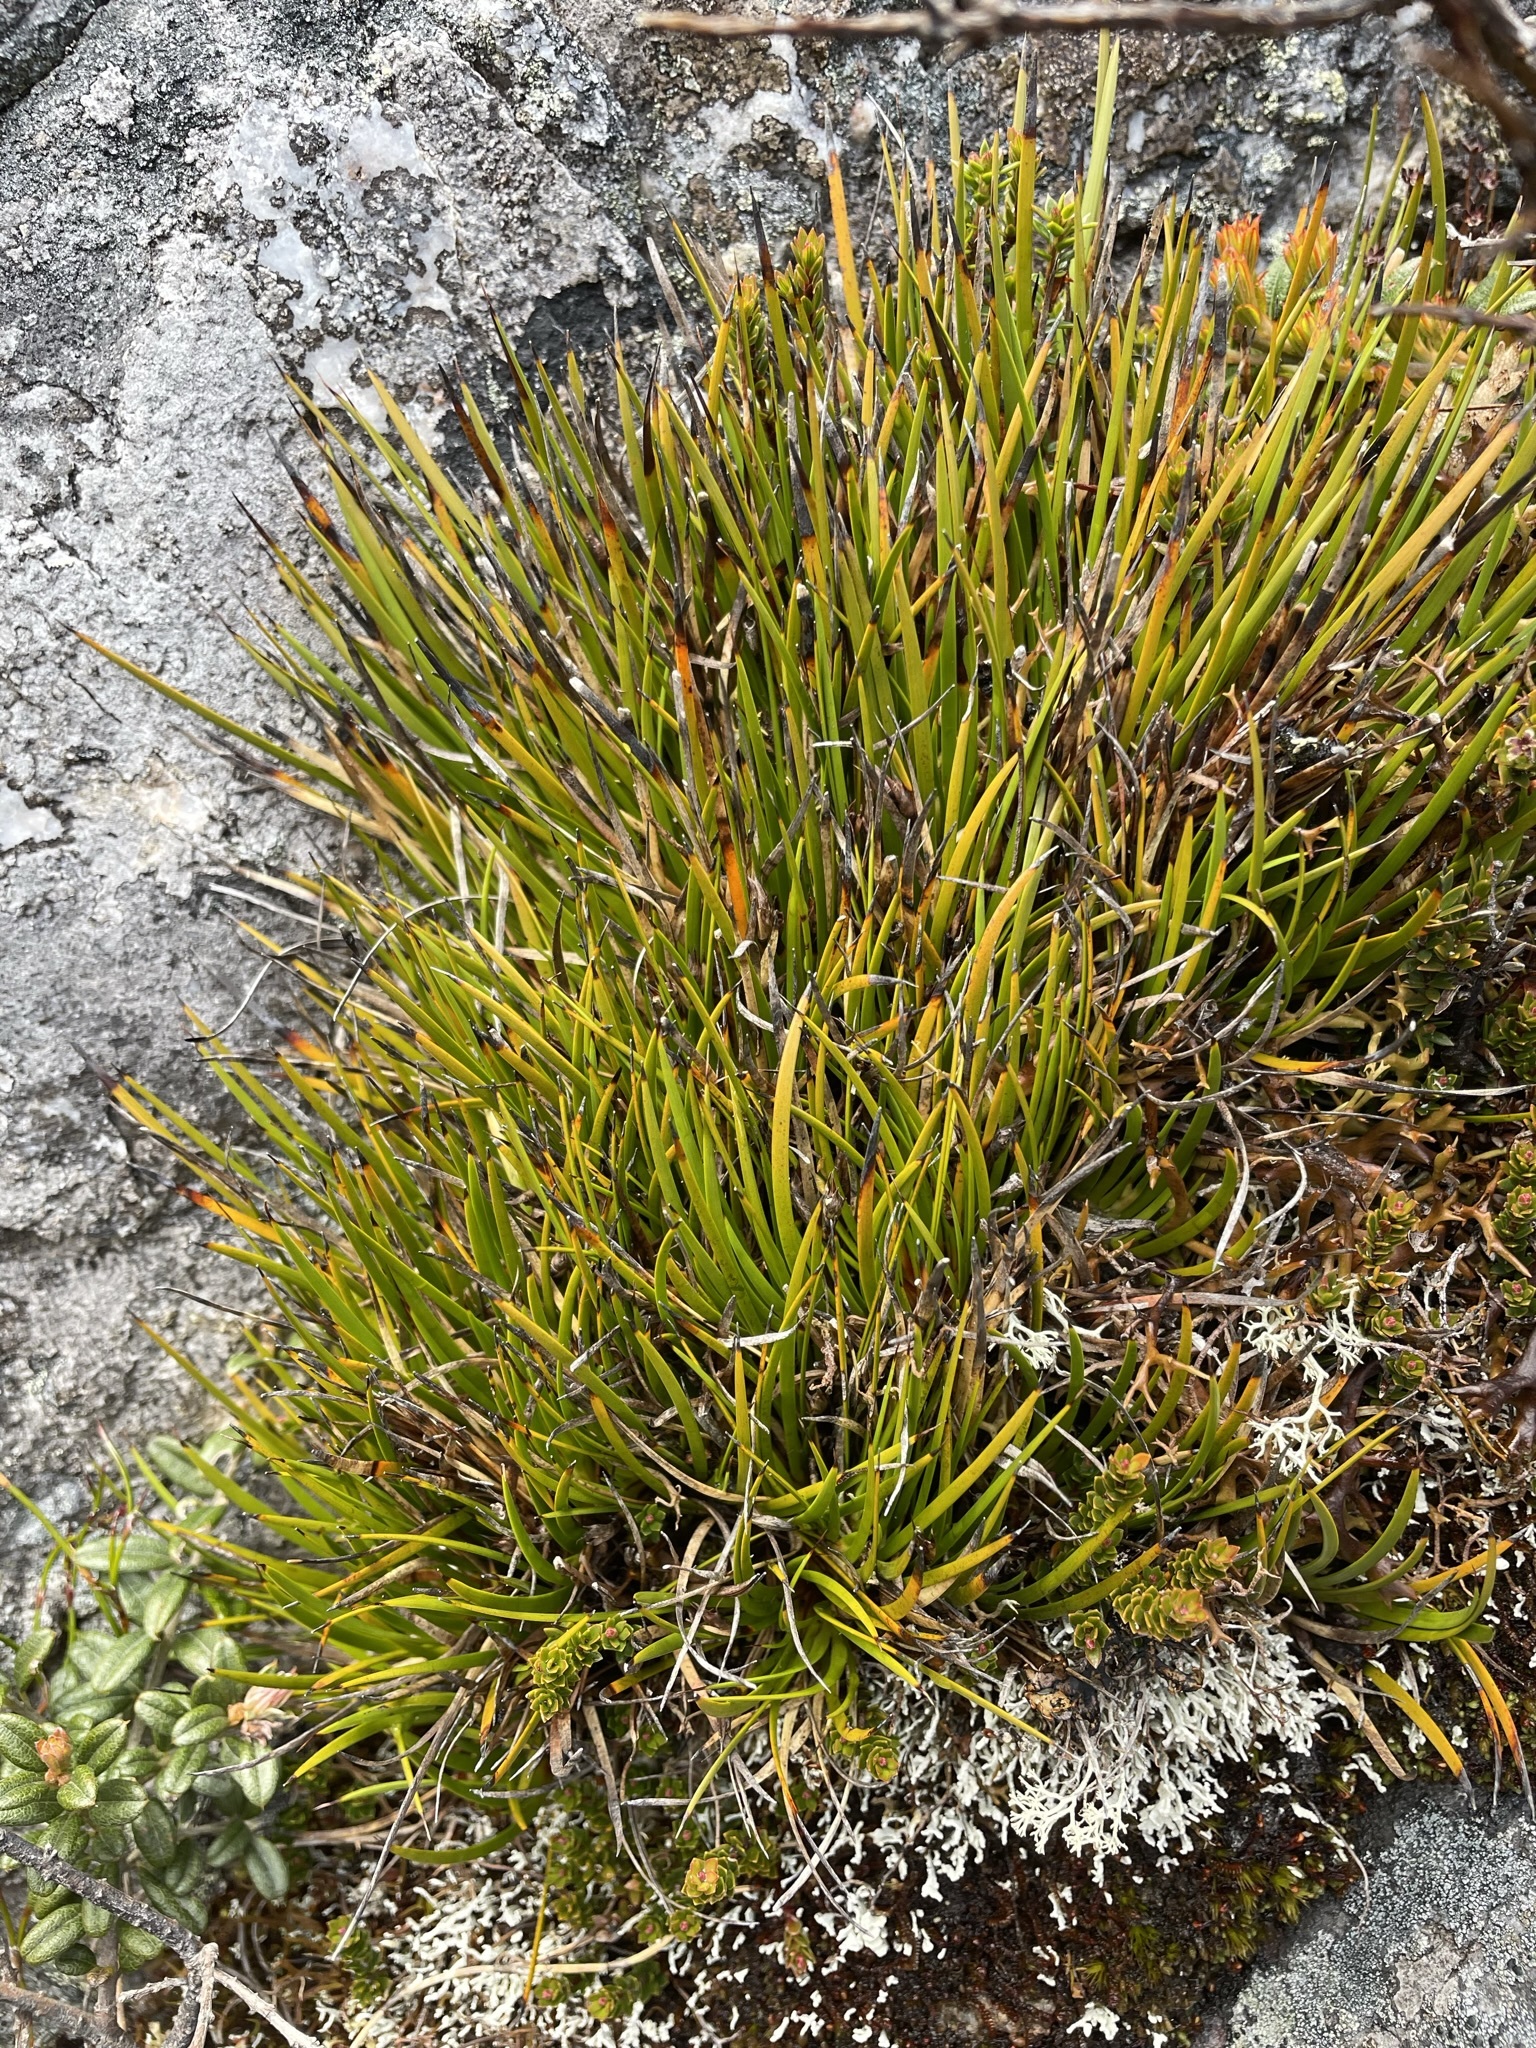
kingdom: Plantae
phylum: Tracheophyta
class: Liliopsida
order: Poales
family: Cyperaceae
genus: Lepidosperma
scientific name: Lepidosperma monticola
